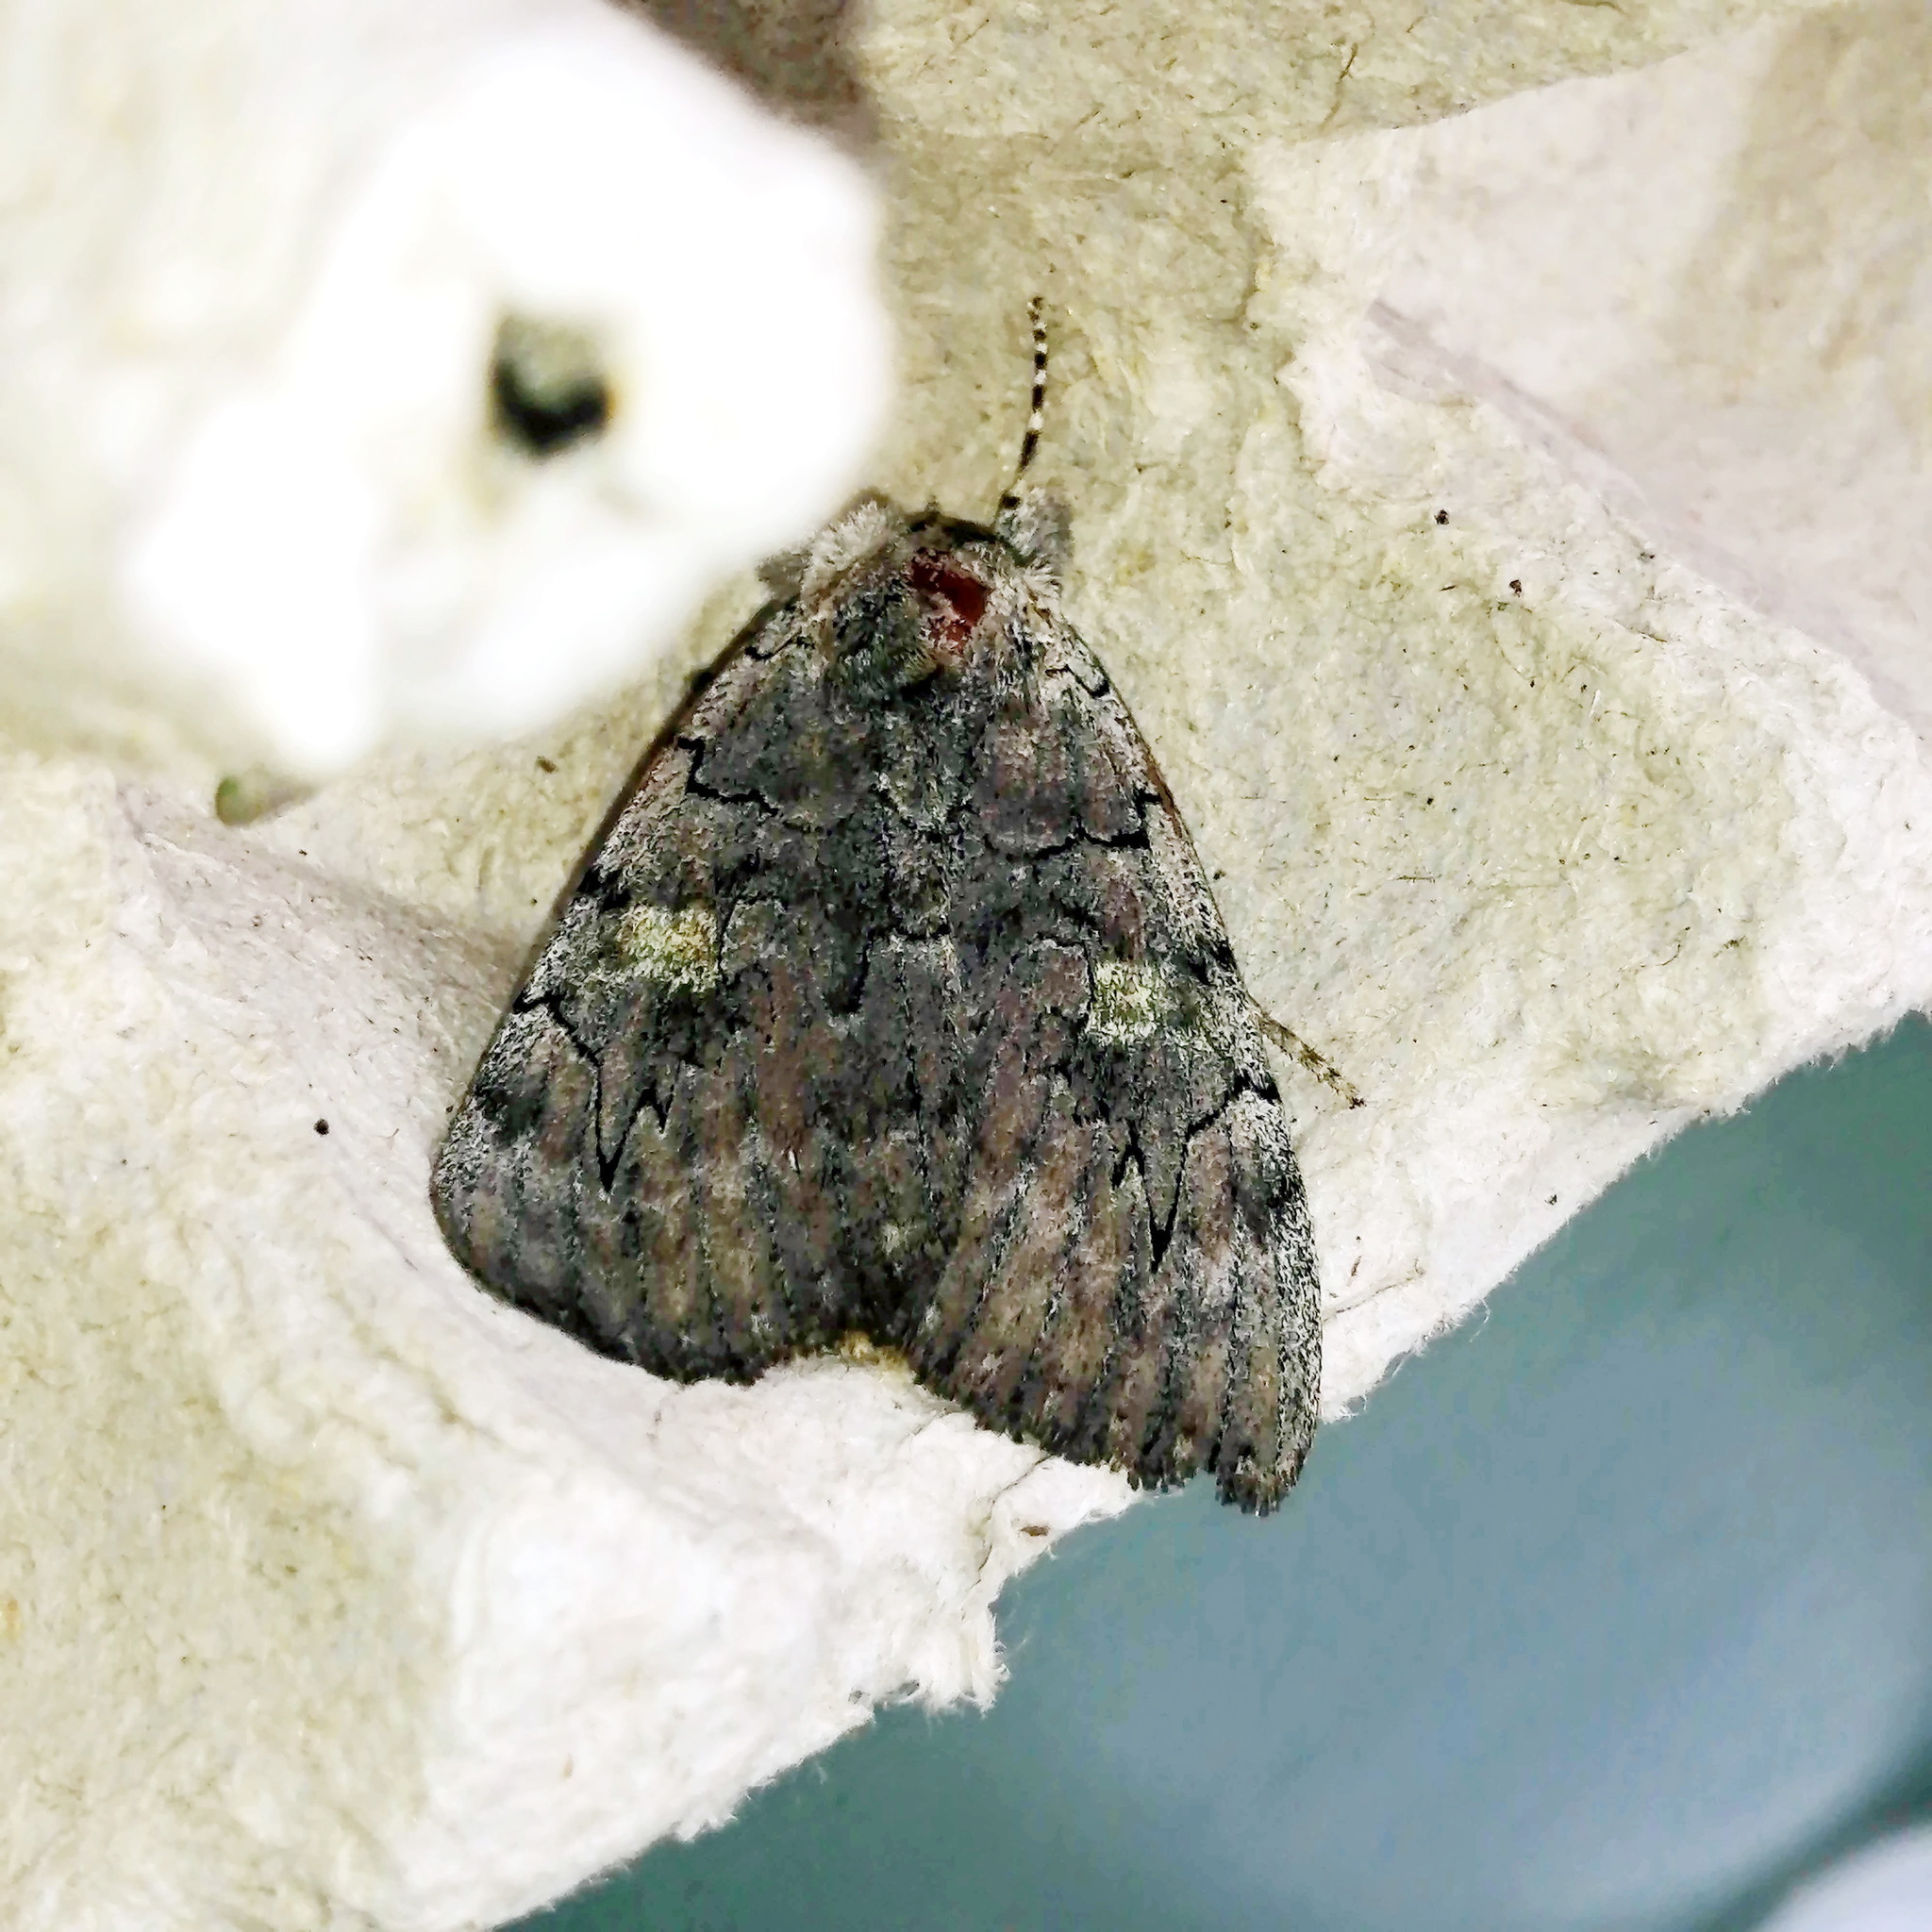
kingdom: Animalia
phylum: Arthropoda
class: Insecta
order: Lepidoptera
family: Erebidae
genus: Catocala
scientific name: Catocala concumbens
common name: Pink underwing
